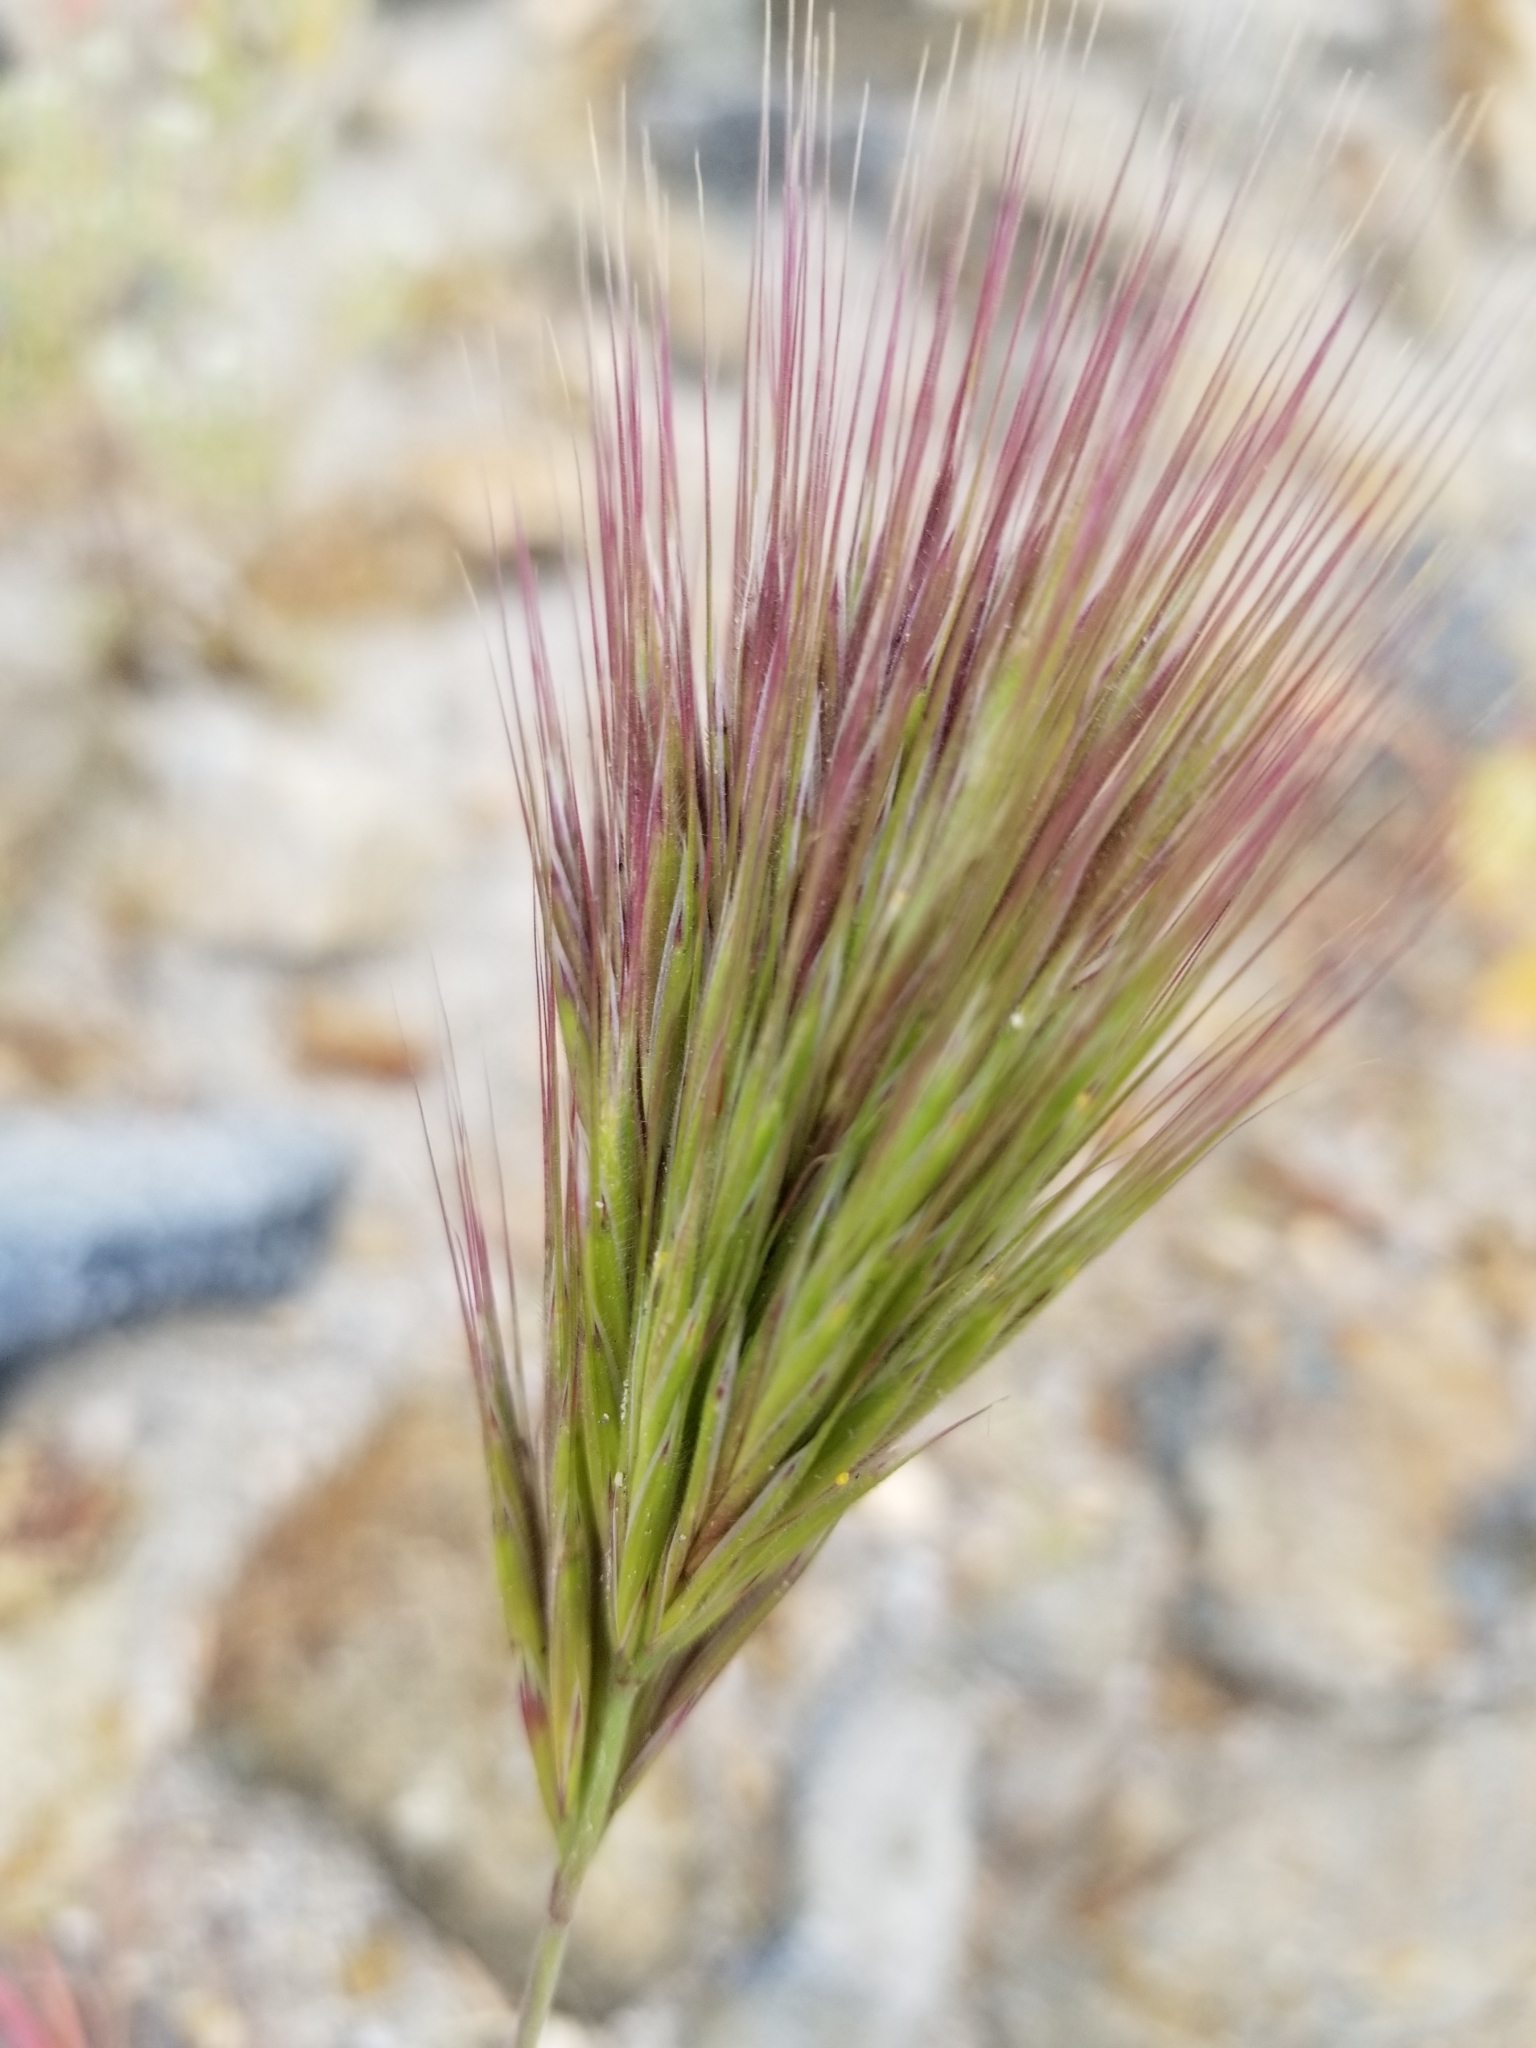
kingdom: Plantae
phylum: Tracheophyta
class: Liliopsida
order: Poales
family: Poaceae
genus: Bromus
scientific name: Bromus rubens
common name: Red brome
